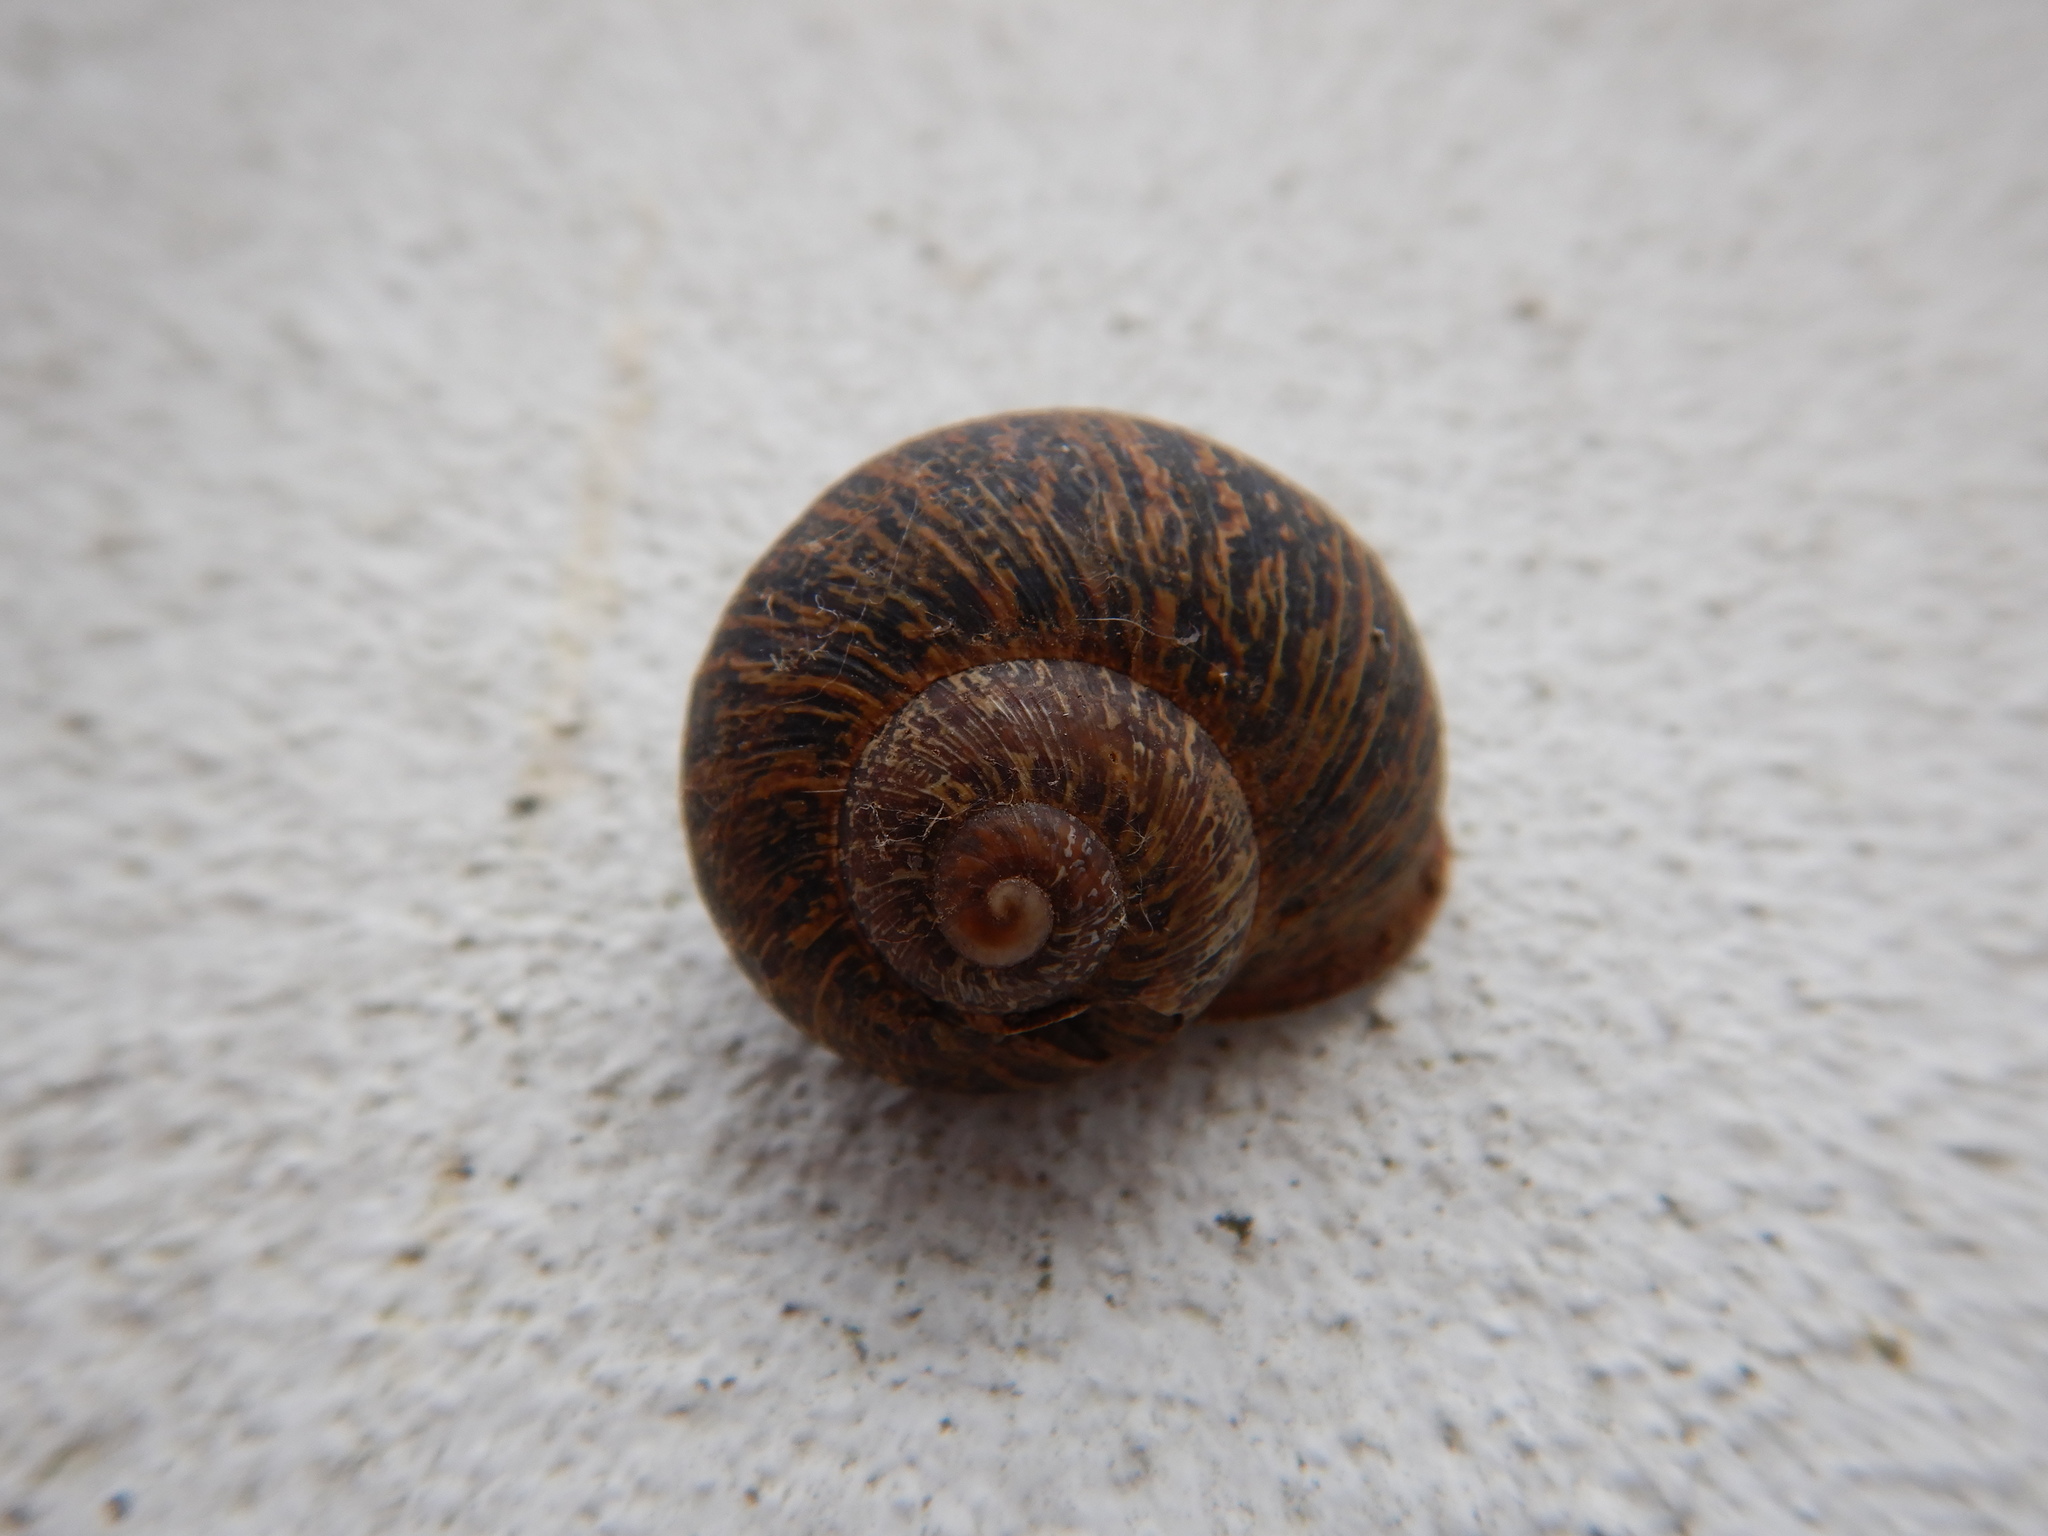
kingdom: Animalia
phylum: Mollusca
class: Gastropoda
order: Stylommatophora
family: Helicidae
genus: Cornu
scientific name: Cornu aspersum
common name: Brown garden snail
